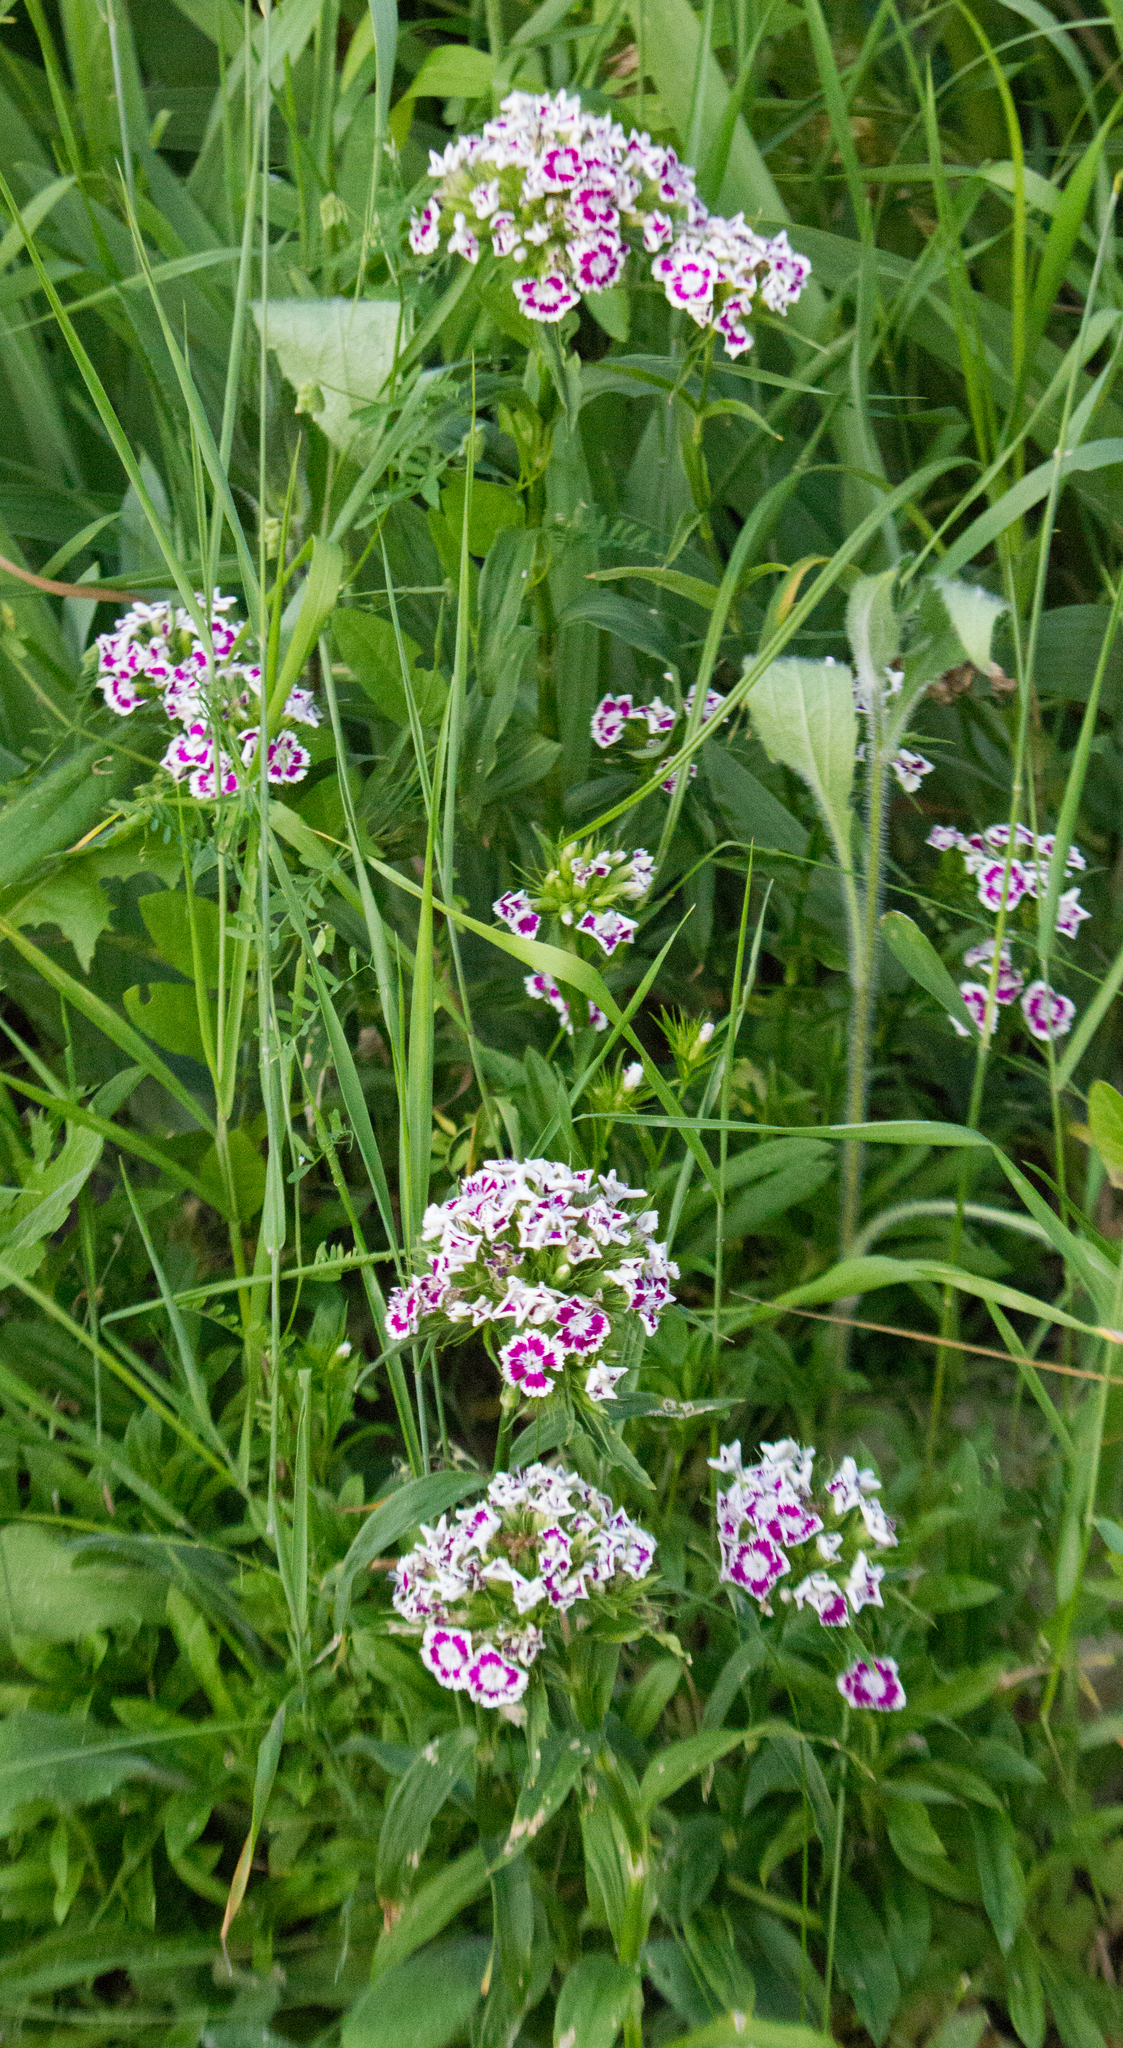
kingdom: Plantae
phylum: Tracheophyta
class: Magnoliopsida
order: Caryophyllales
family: Caryophyllaceae
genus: Dianthus
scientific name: Dianthus barbatus
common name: Sweet-william
